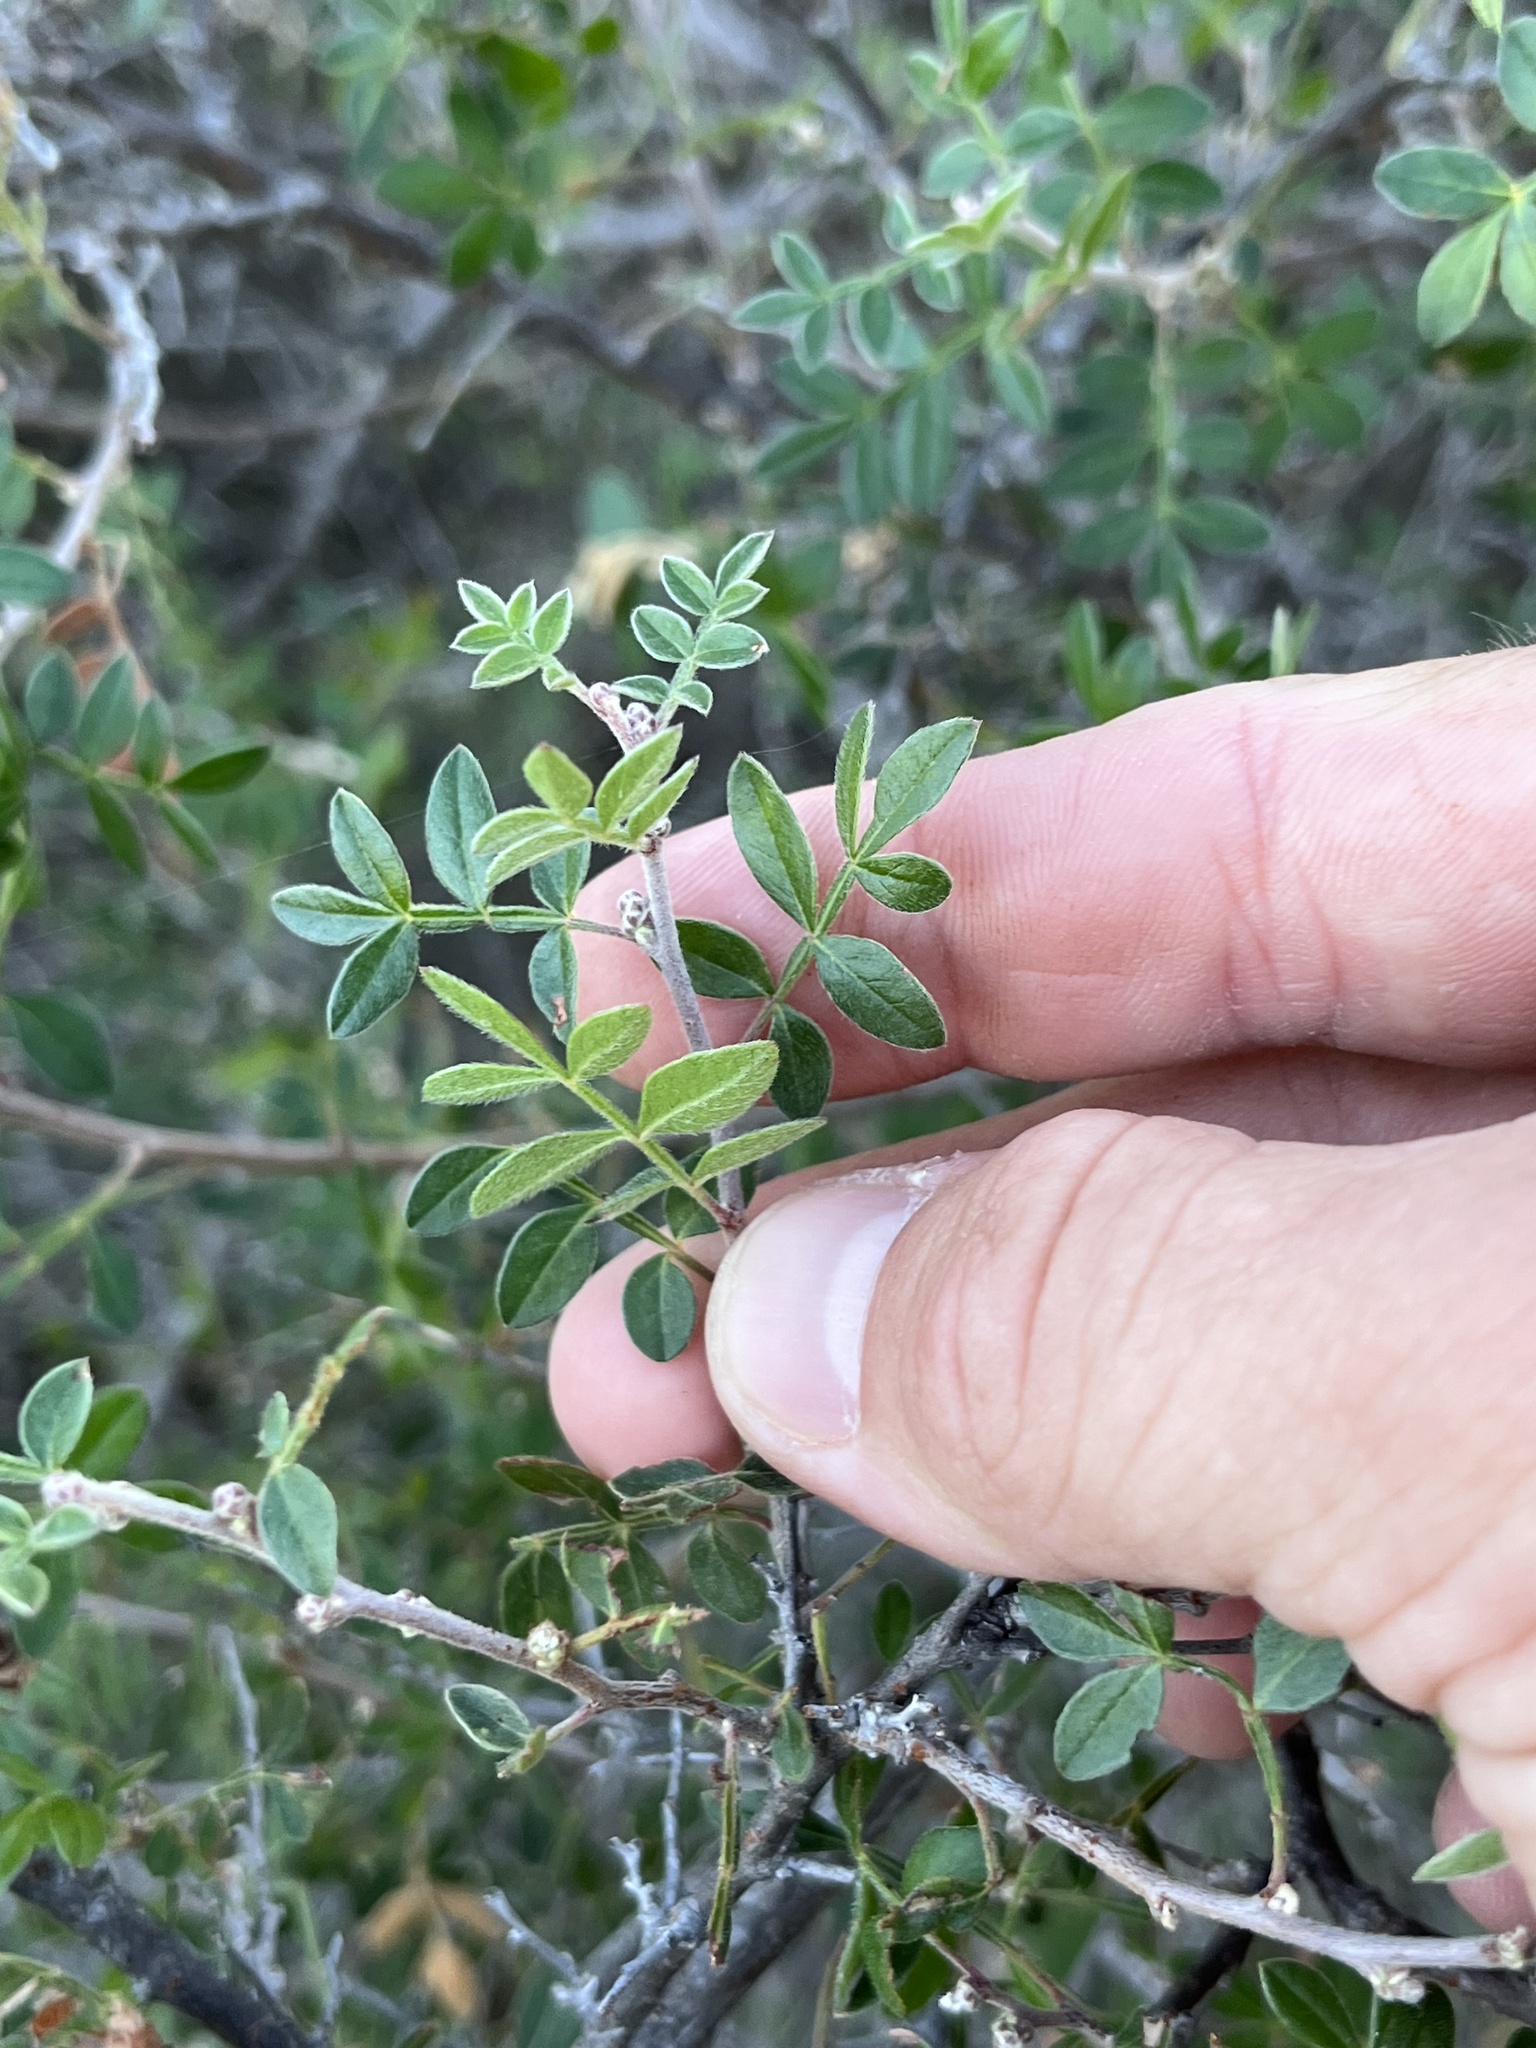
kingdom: Plantae
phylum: Tracheophyta
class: Magnoliopsida
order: Sapindales
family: Anacardiaceae
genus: Rhus
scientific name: Rhus microphylla
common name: Desert sumac
